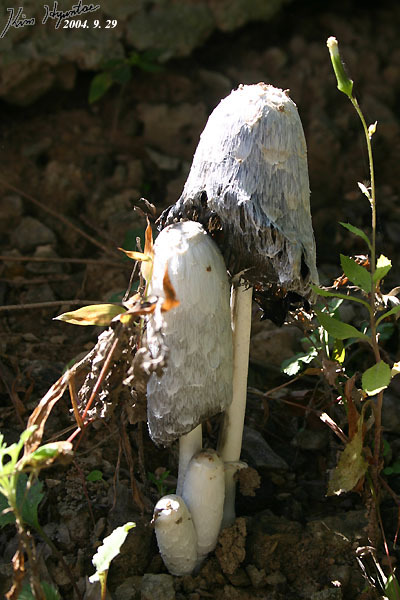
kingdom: Fungi
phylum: Basidiomycota
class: Agaricomycetes
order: Agaricales
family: Agaricaceae
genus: Coprinus
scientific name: Coprinus comatus
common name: Lawyer's wig
